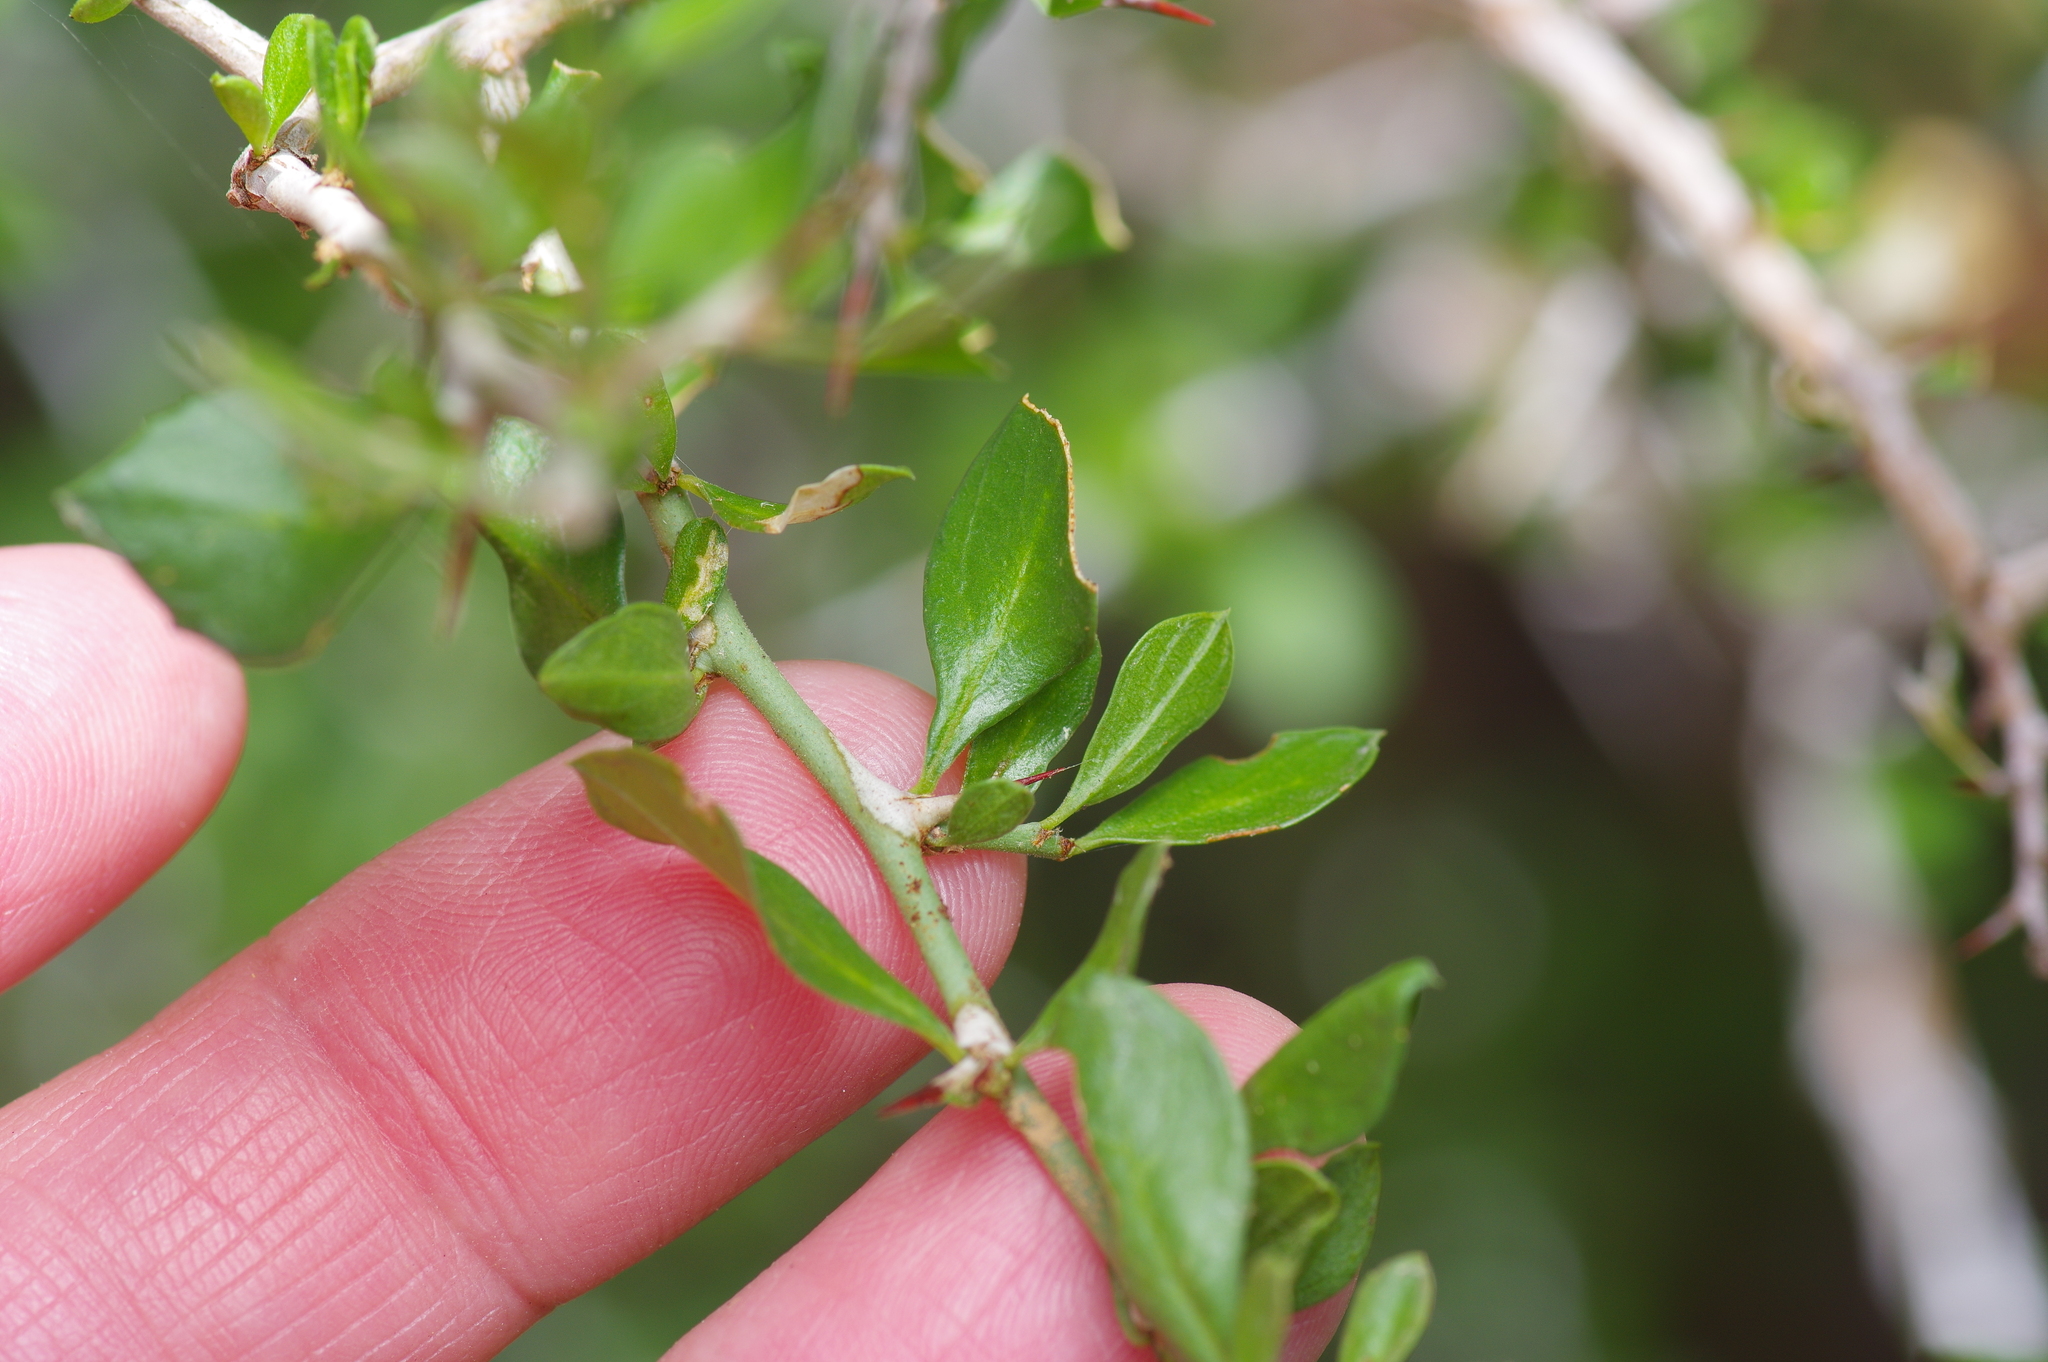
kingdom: Plantae
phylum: Tracheophyta
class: Magnoliopsida
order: Rosales
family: Rhamnaceae
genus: Condalia
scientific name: Condalia viridis
